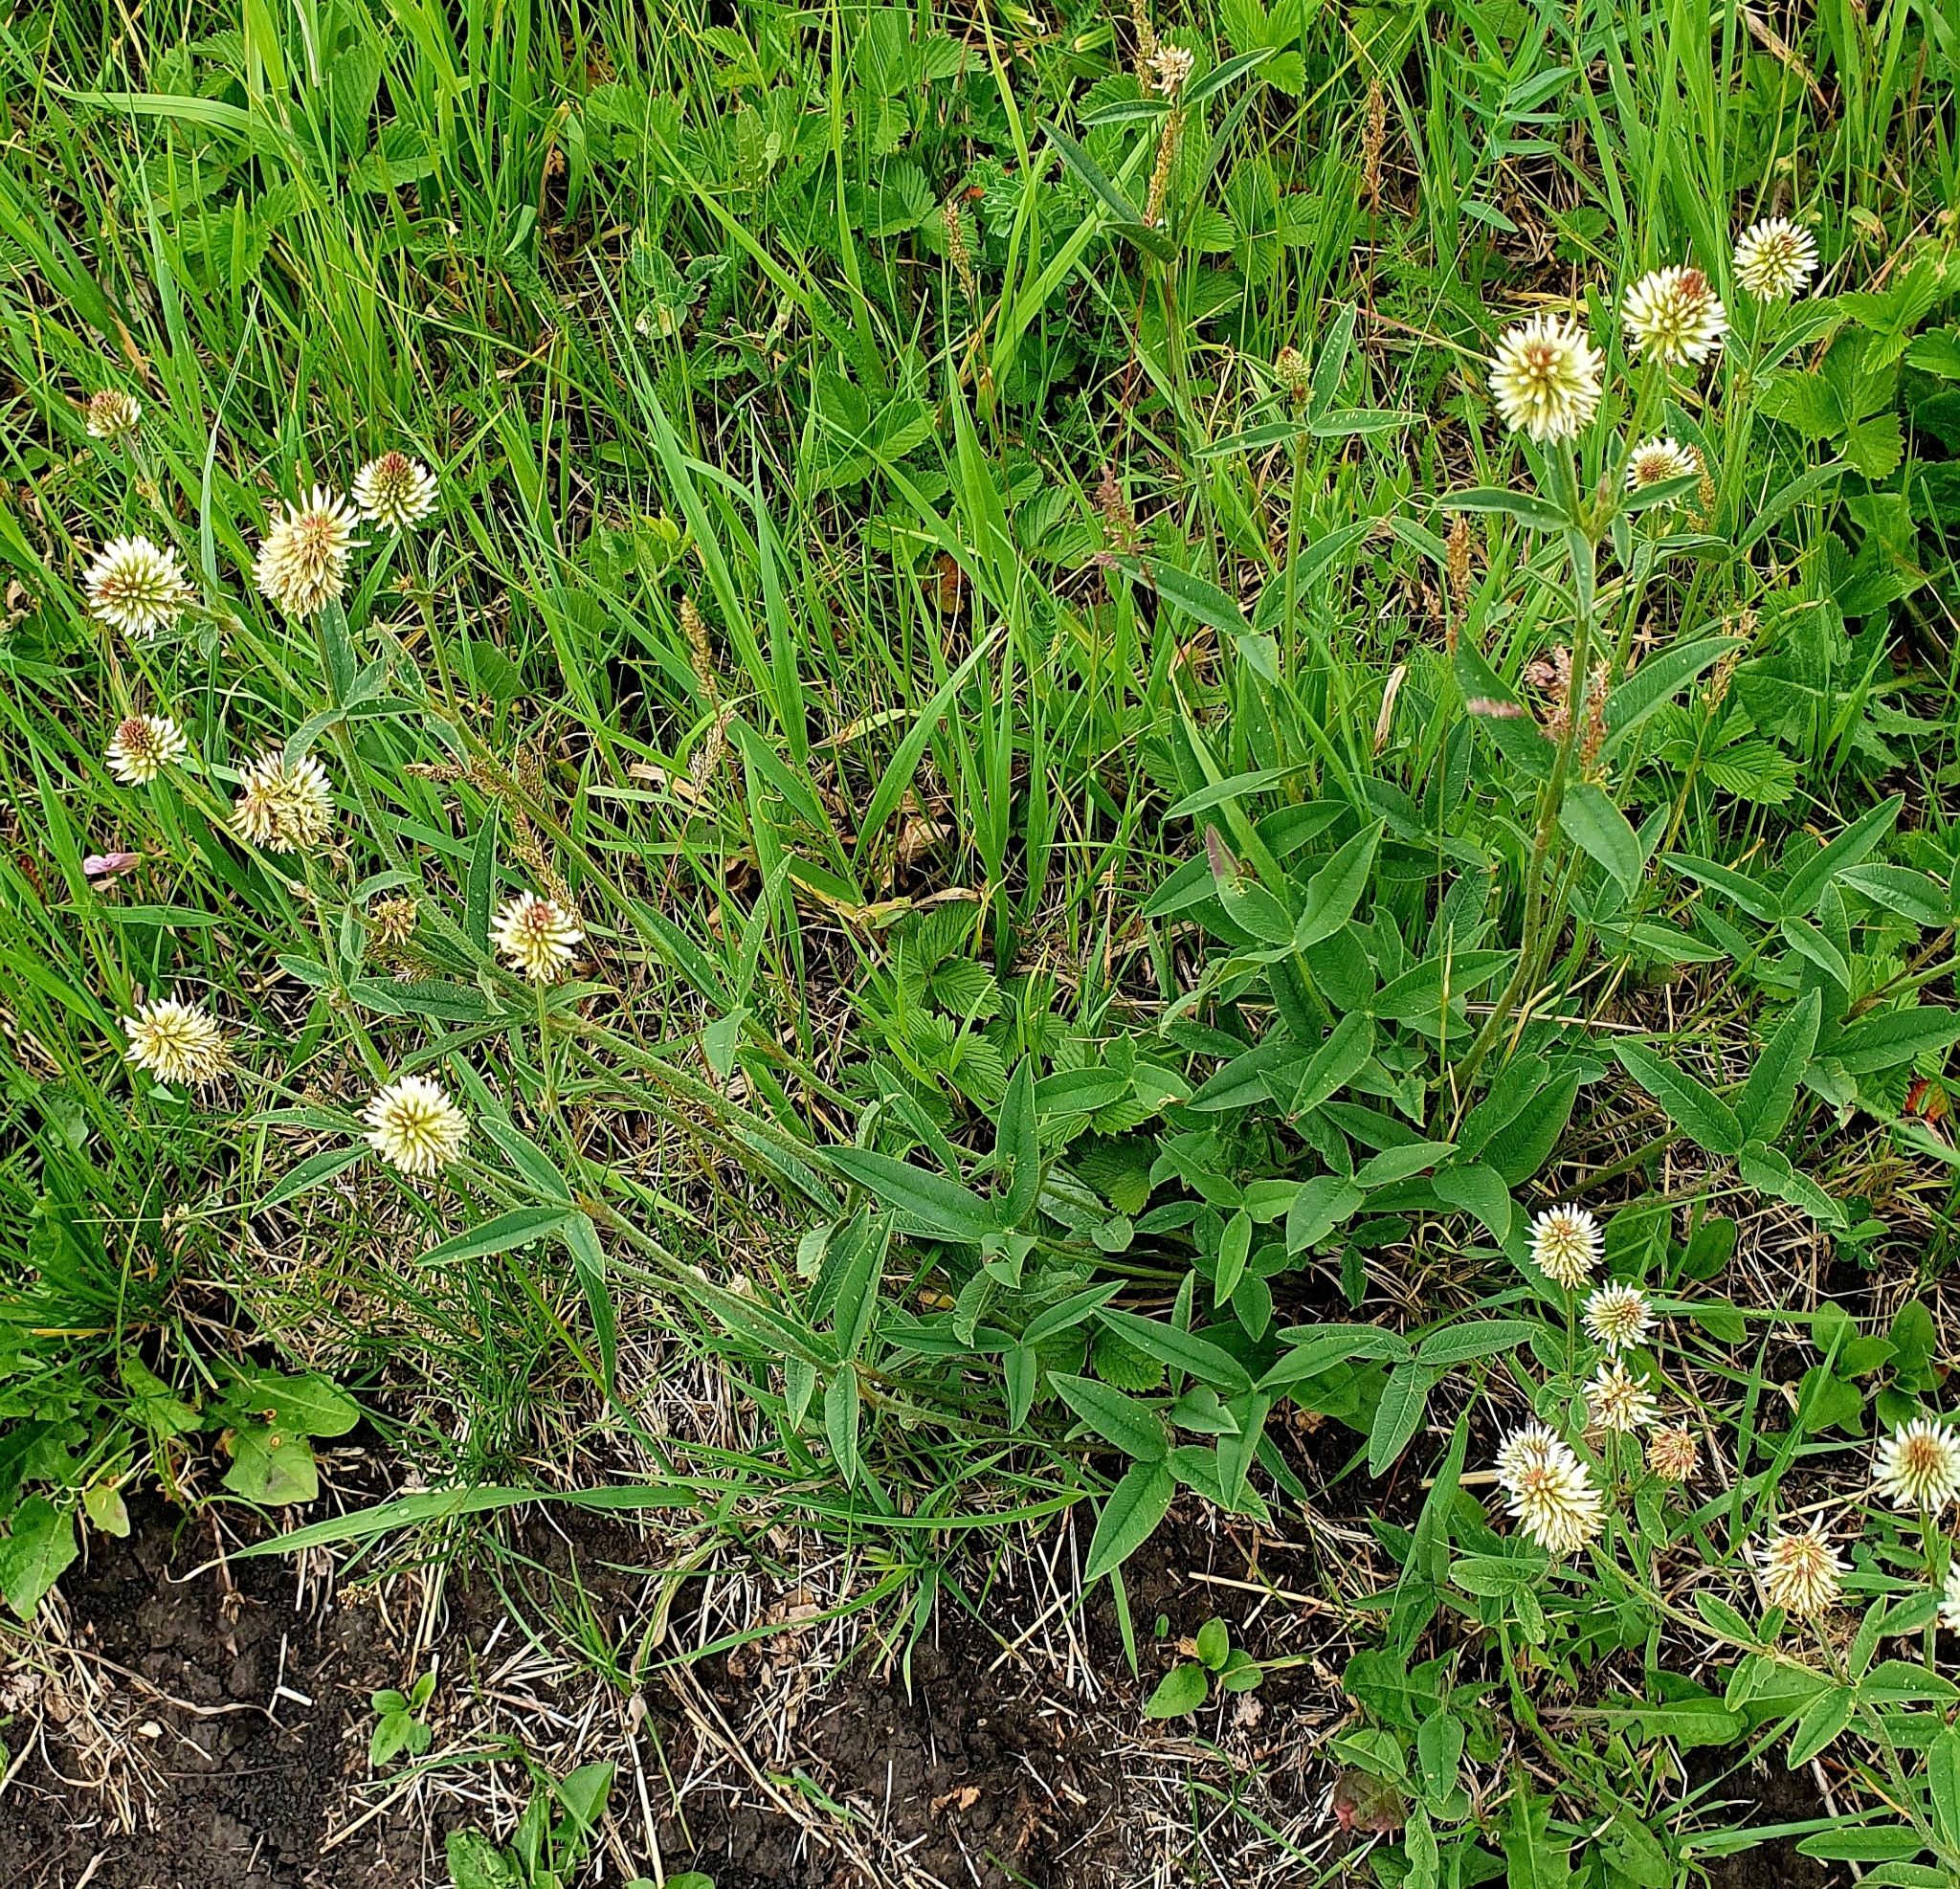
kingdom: Plantae
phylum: Tracheophyta
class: Magnoliopsida
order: Fabales
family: Fabaceae
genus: Trifolium
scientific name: Trifolium montanum
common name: Mountain clover
